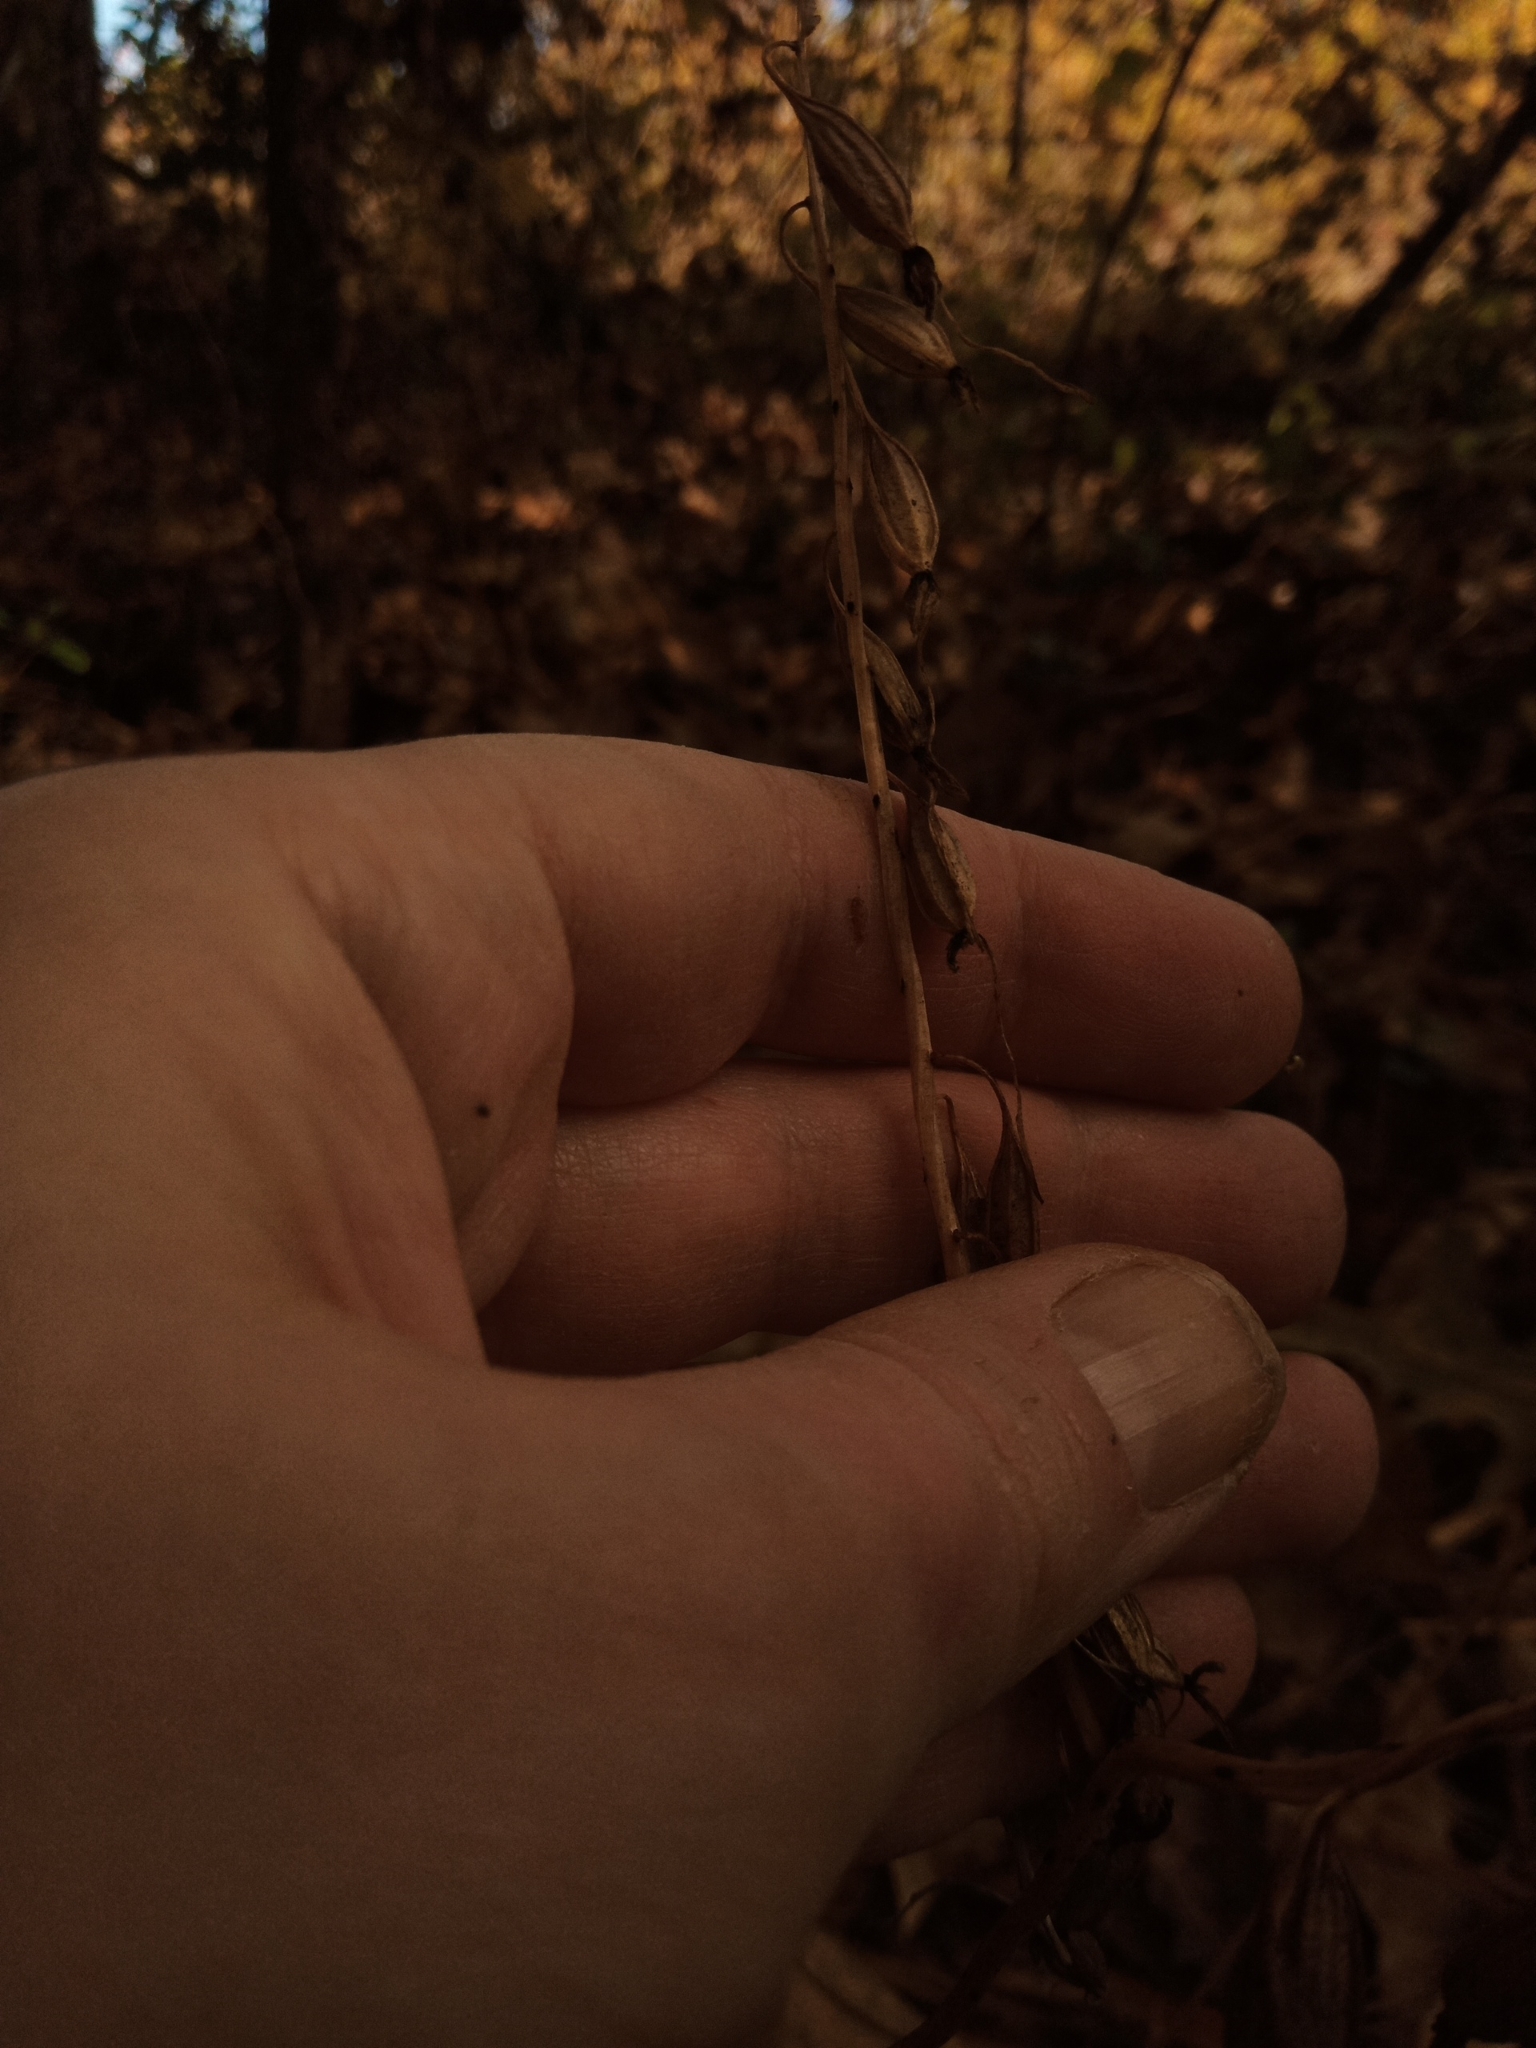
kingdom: Plantae
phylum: Tracheophyta
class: Liliopsida
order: Asparagales
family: Orchidaceae
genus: Tipularia
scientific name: Tipularia discolor
